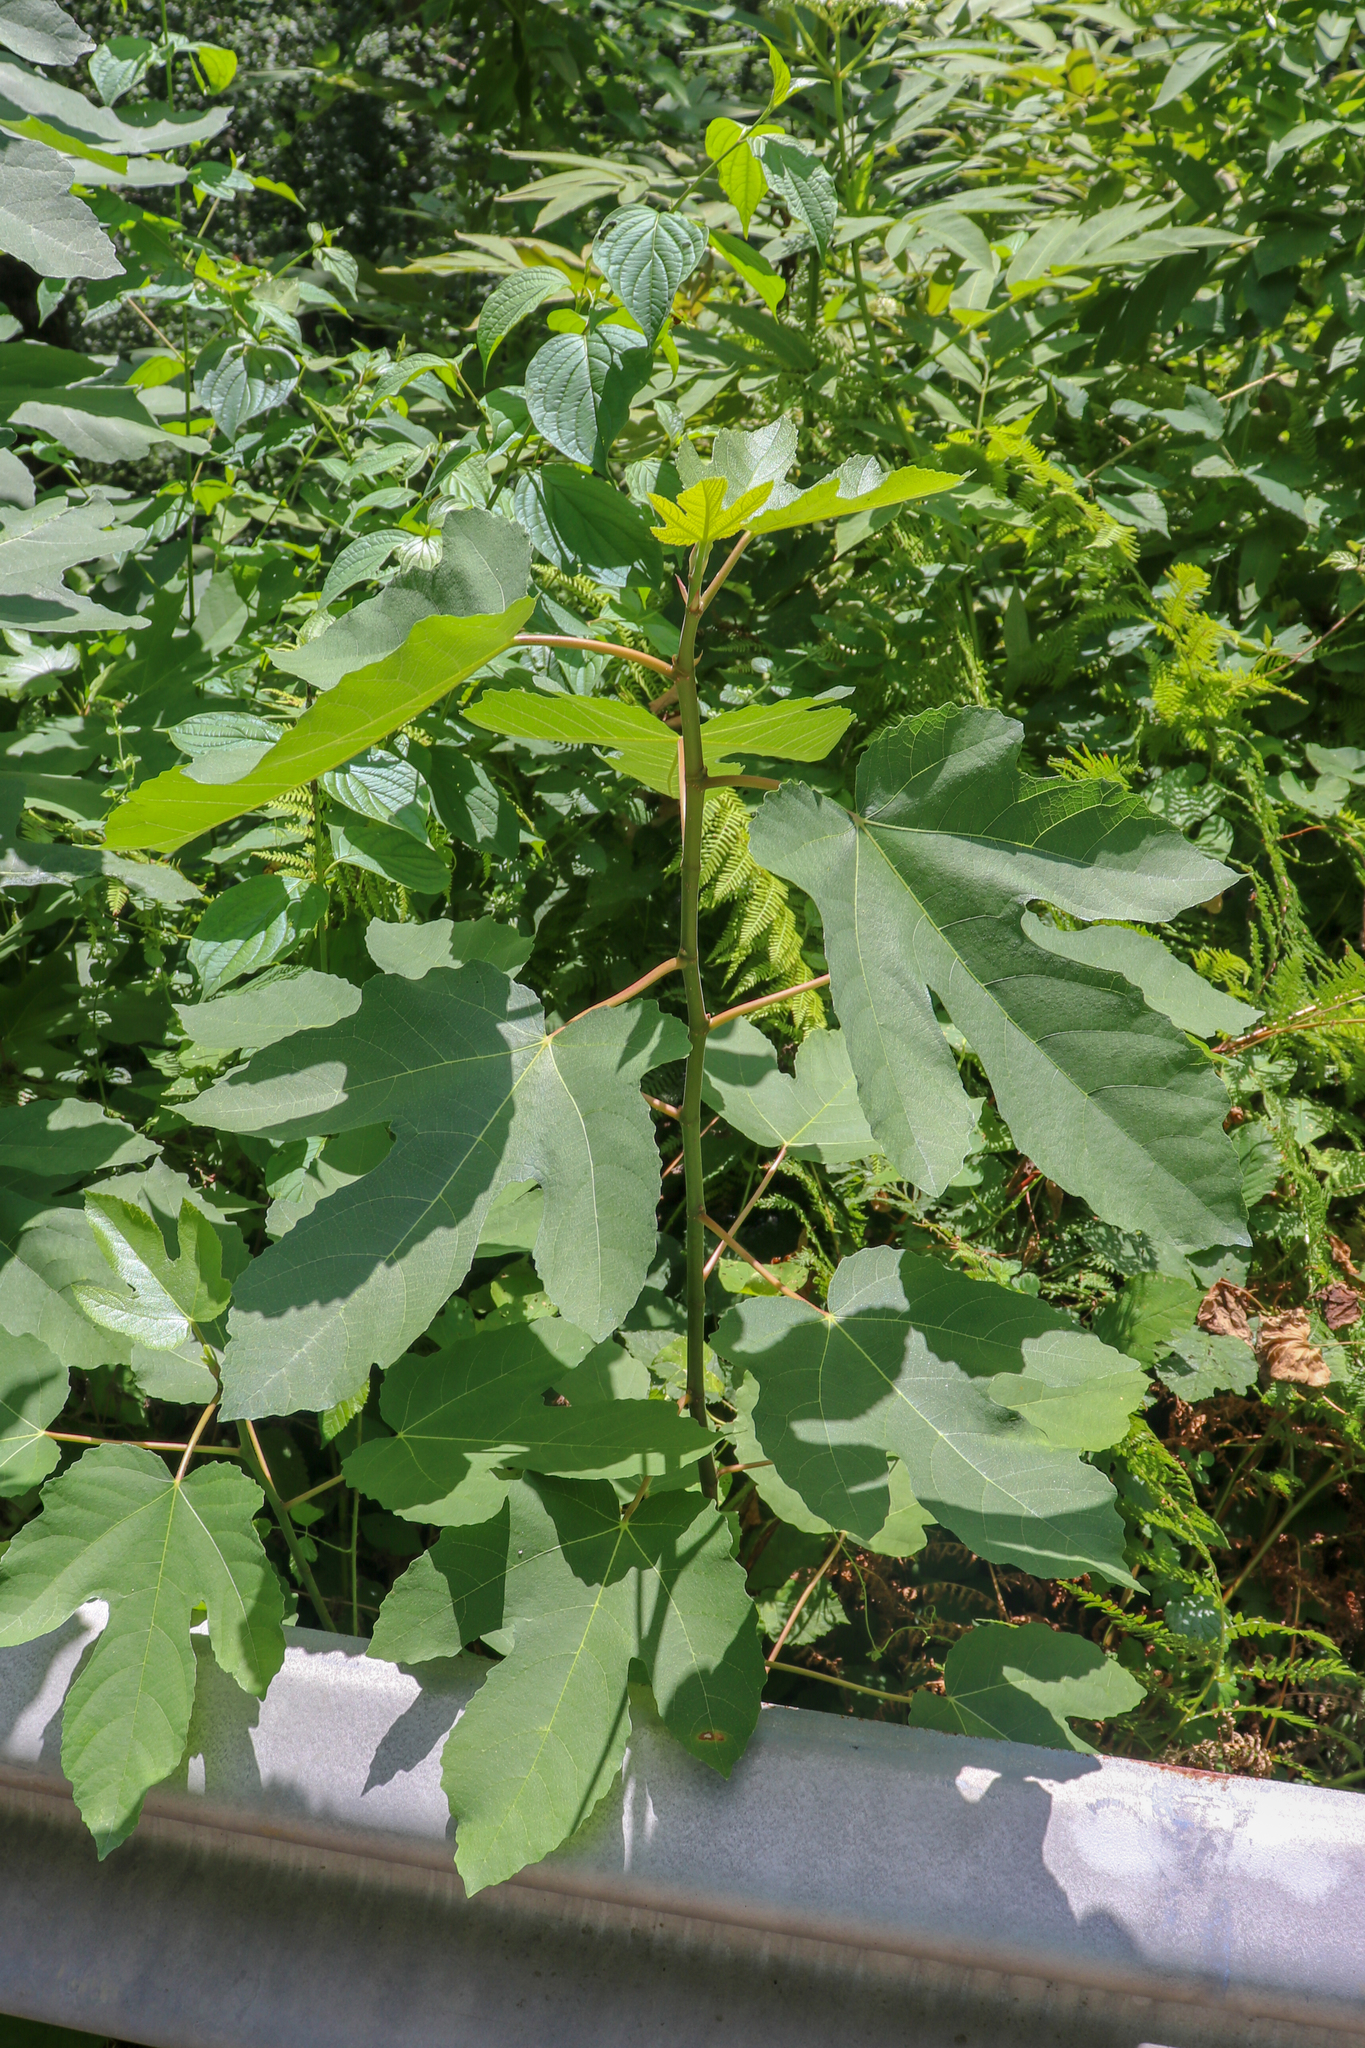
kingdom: Plantae
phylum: Tracheophyta
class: Magnoliopsida
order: Rosales
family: Moraceae
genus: Ficus
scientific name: Ficus carica
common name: Fig
